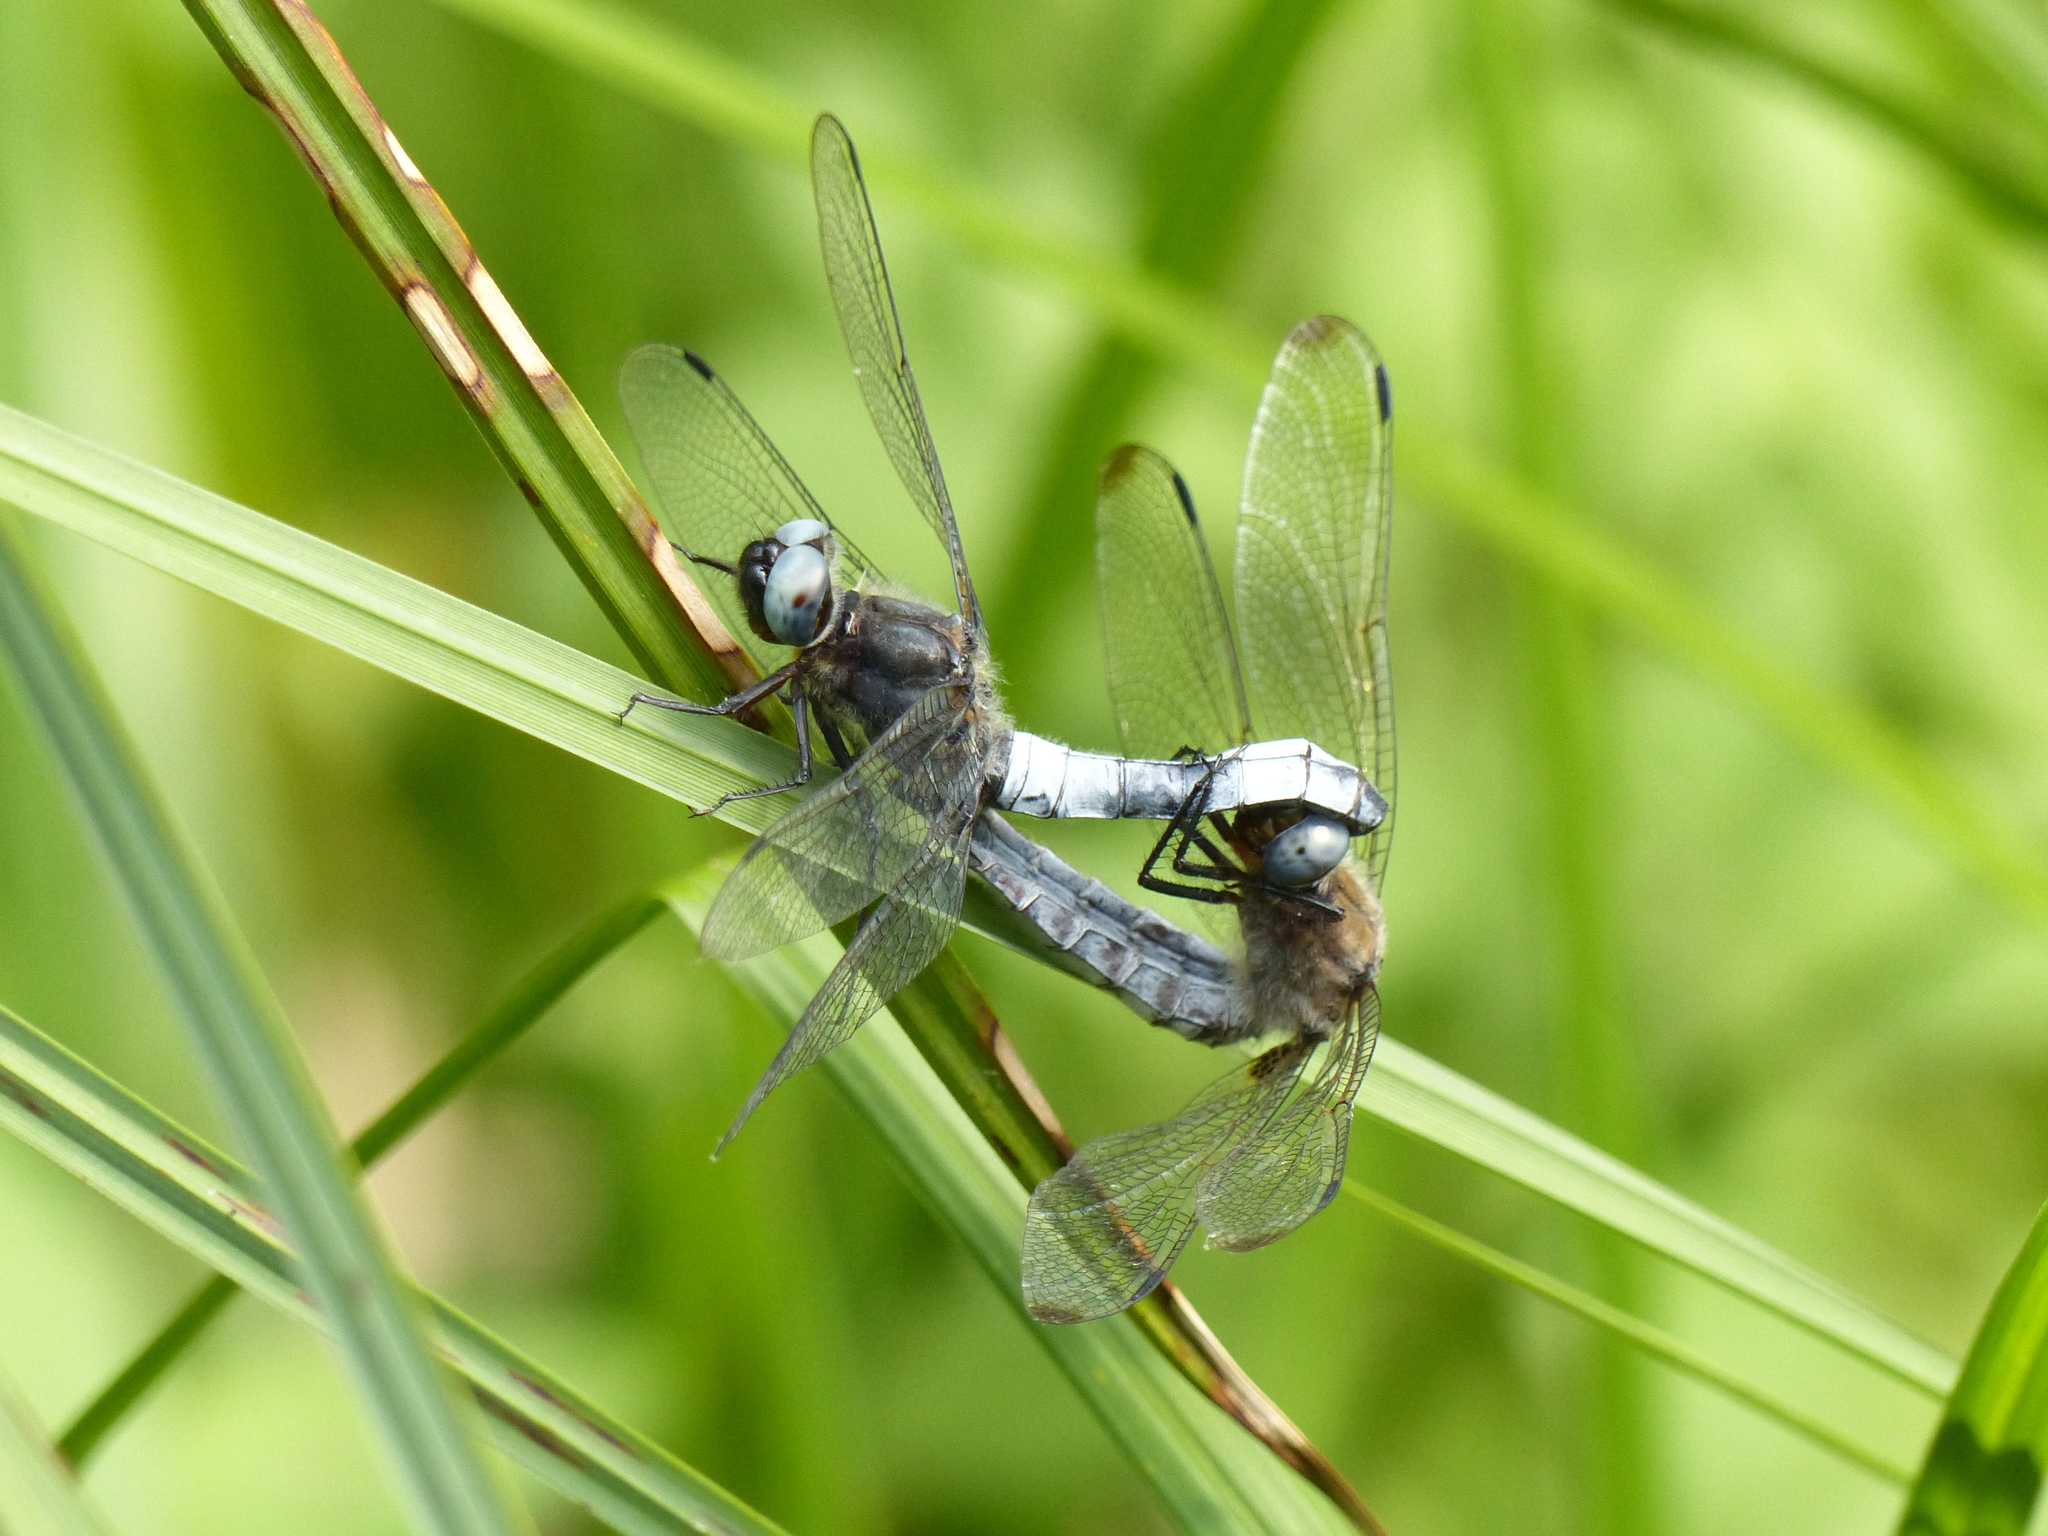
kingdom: Animalia
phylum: Arthropoda
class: Insecta
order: Odonata
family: Libellulidae
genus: Libellula
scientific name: Libellula fulva
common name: Blue chaser
